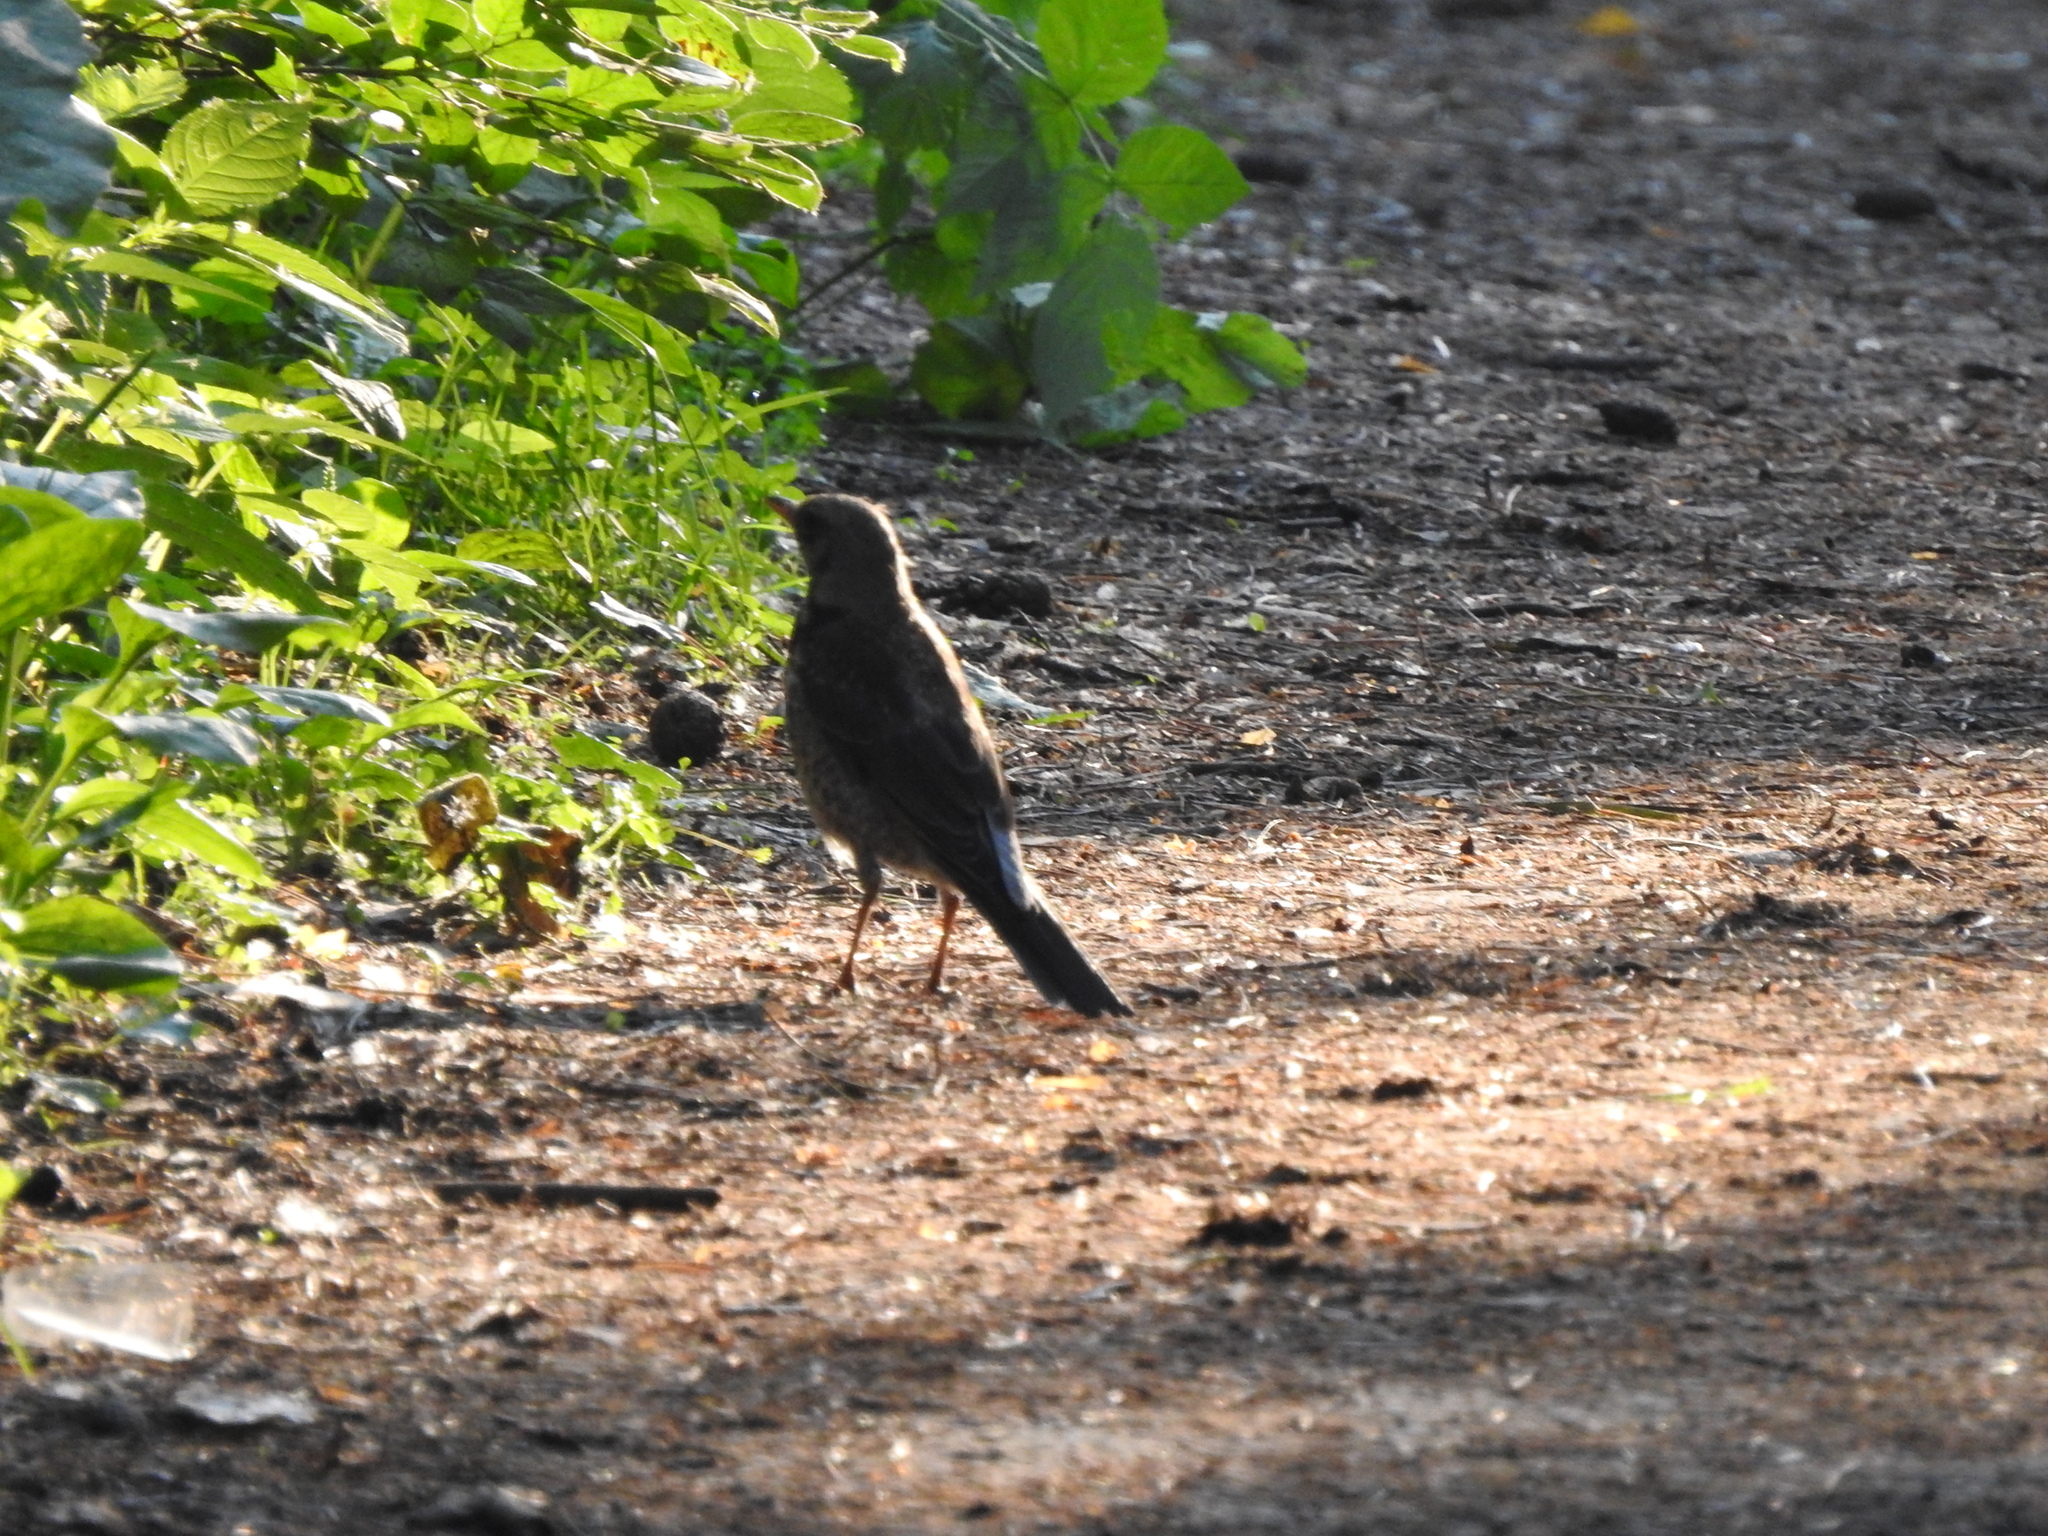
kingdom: Animalia
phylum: Chordata
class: Aves
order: Passeriformes
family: Turdidae
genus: Turdus
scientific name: Turdus pilaris
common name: Fieldfare
